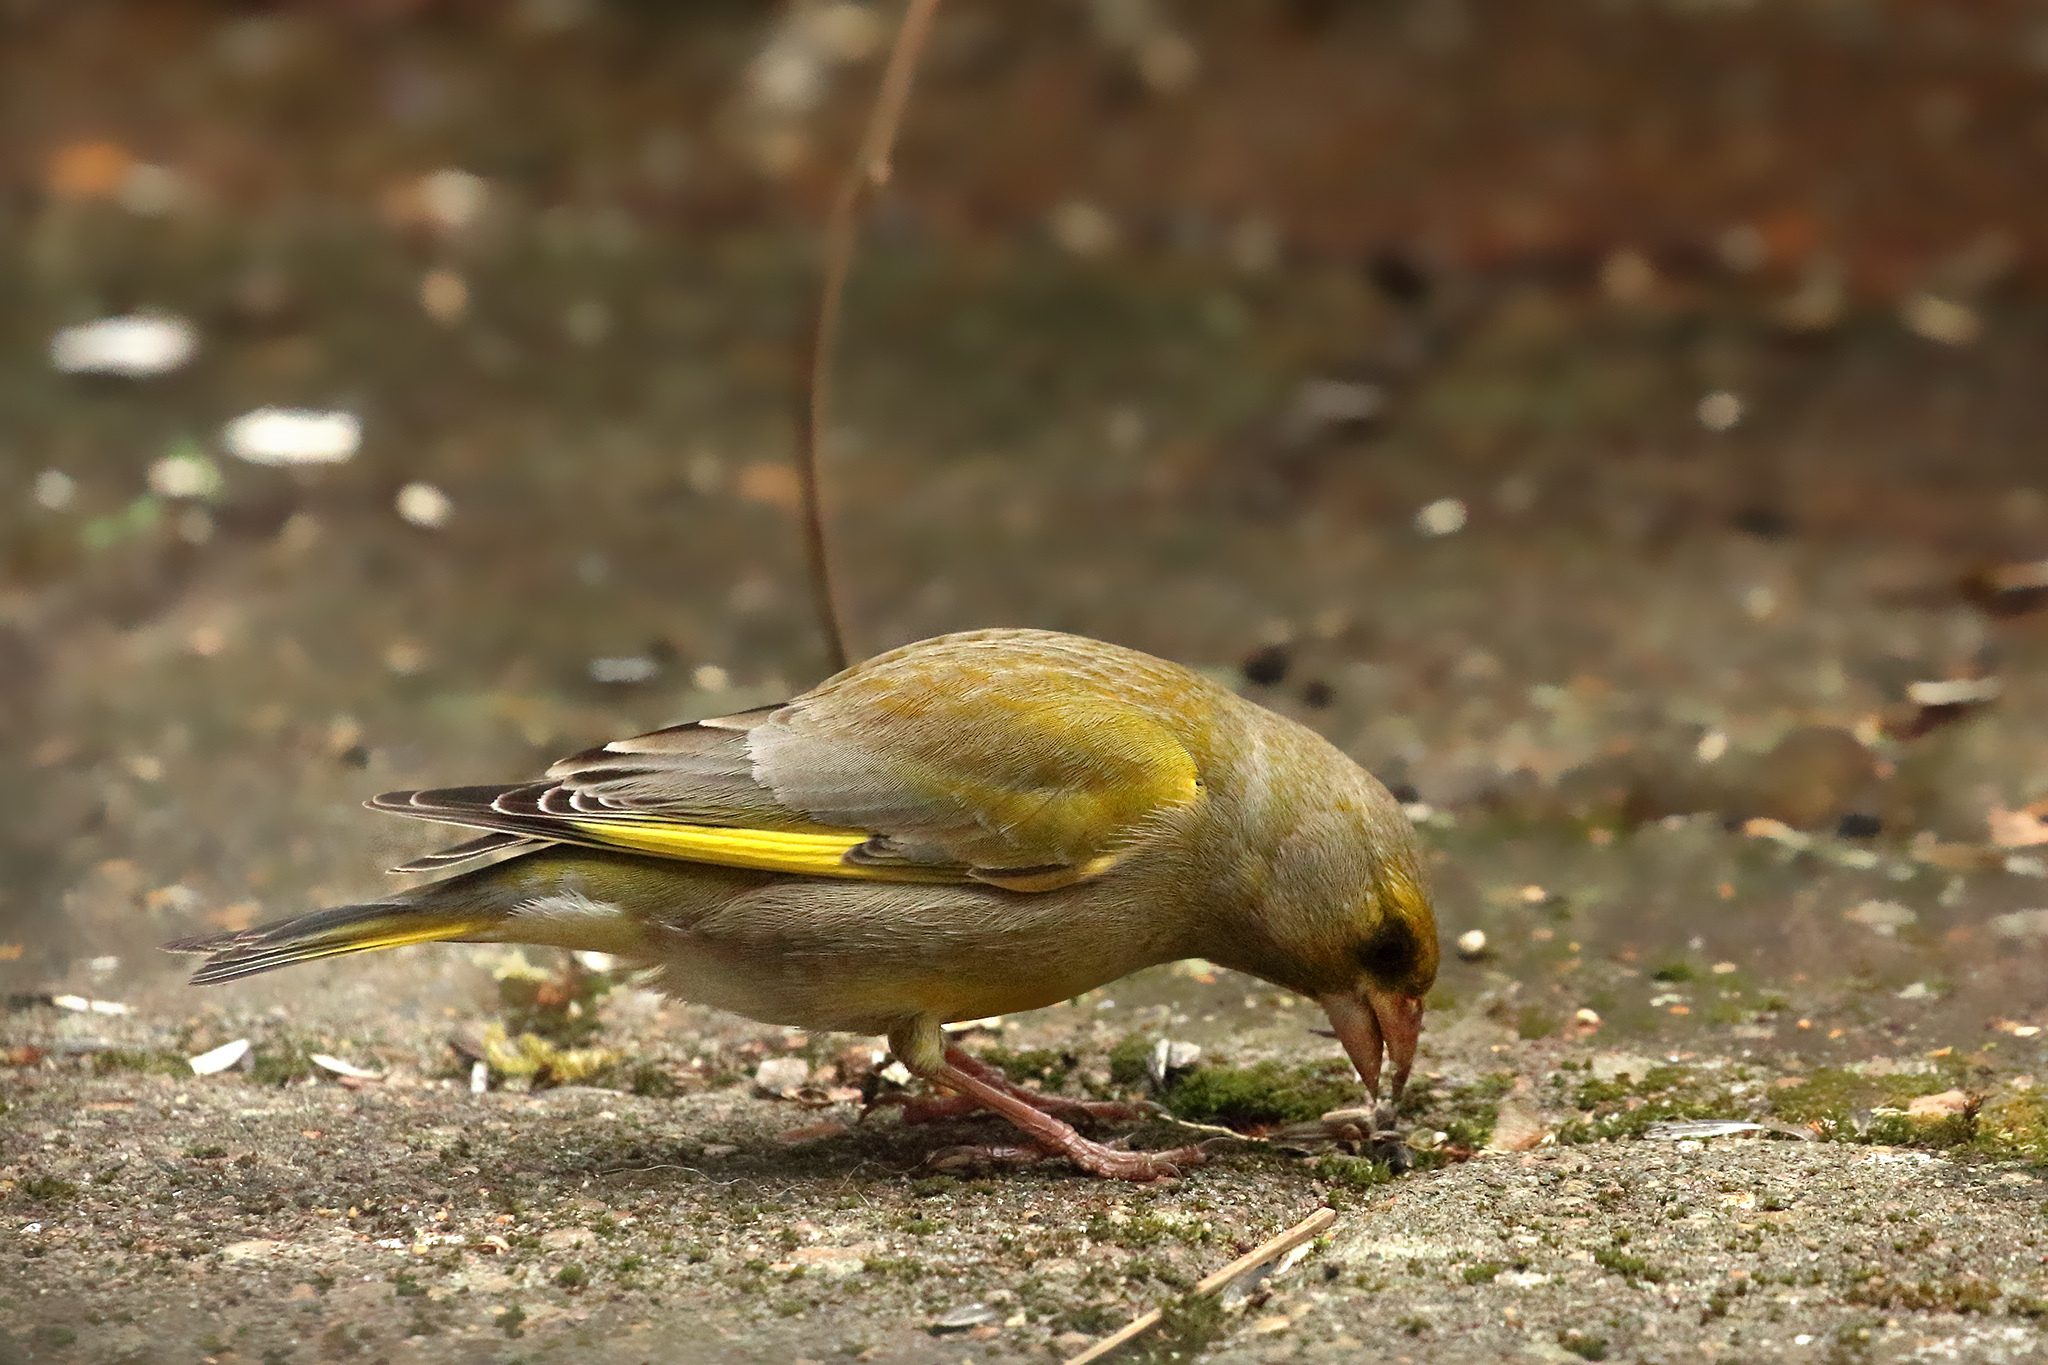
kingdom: Plantae
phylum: Tracheophyta
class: Liliopsida
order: Poales
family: Poaceae
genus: Chloris
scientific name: Chloris chloris
